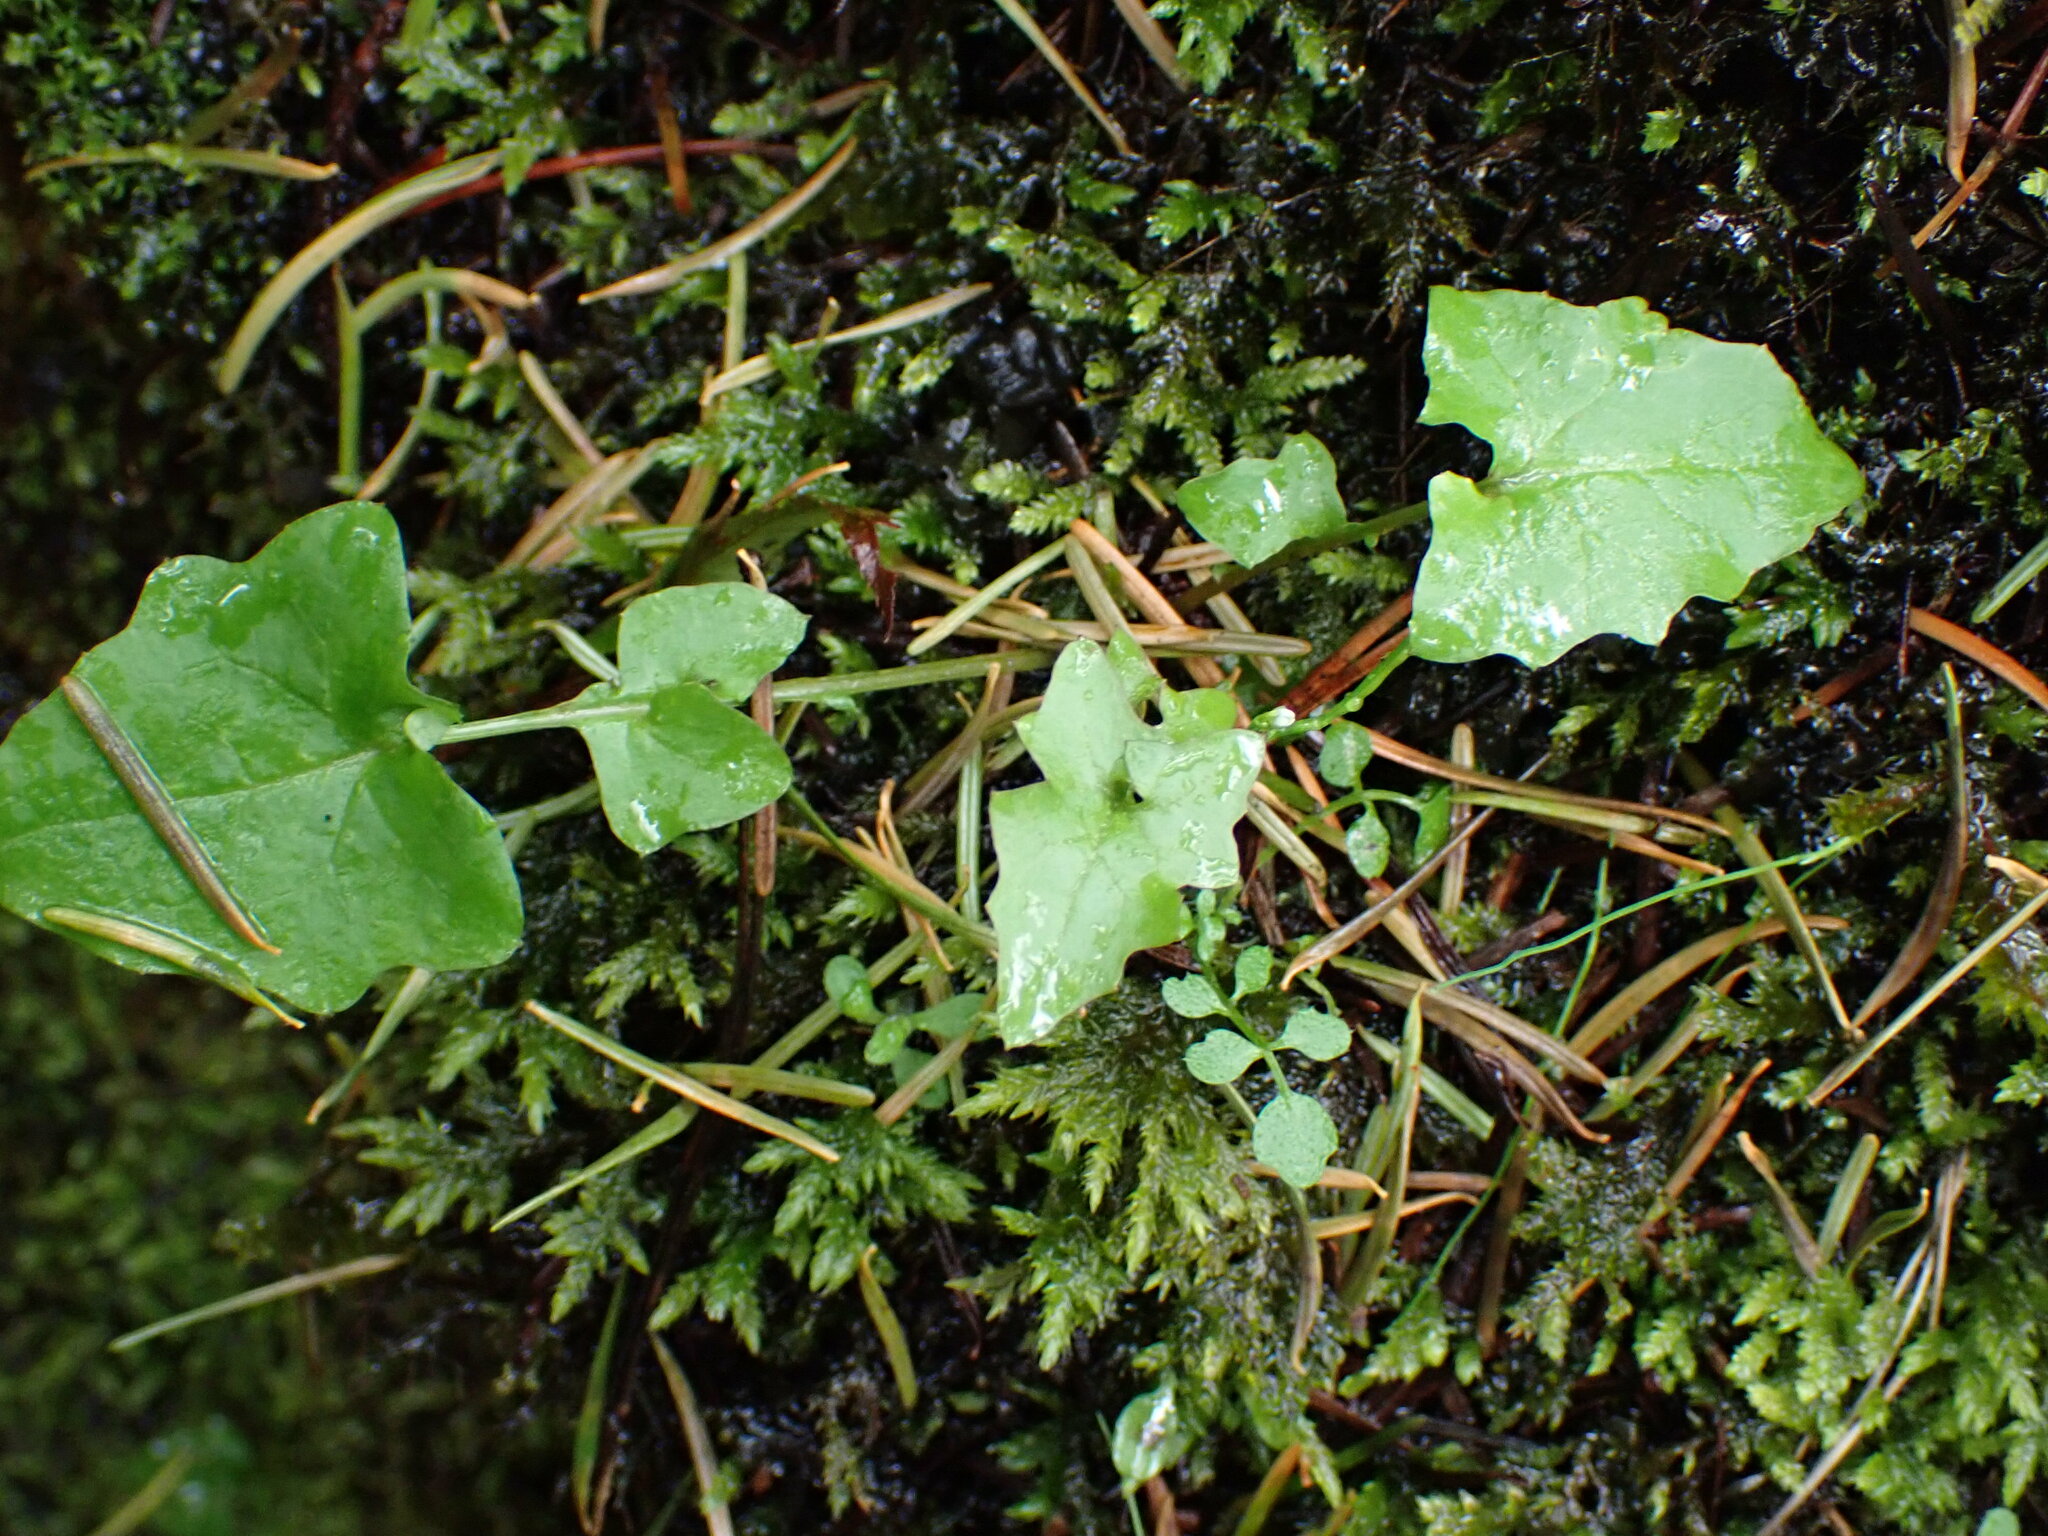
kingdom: Plantae
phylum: Tracheophyta
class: Magnoliopsida
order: Asterales
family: Asteraceae
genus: Mycelis
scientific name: Mycelis muralis
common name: Wall lettuce
